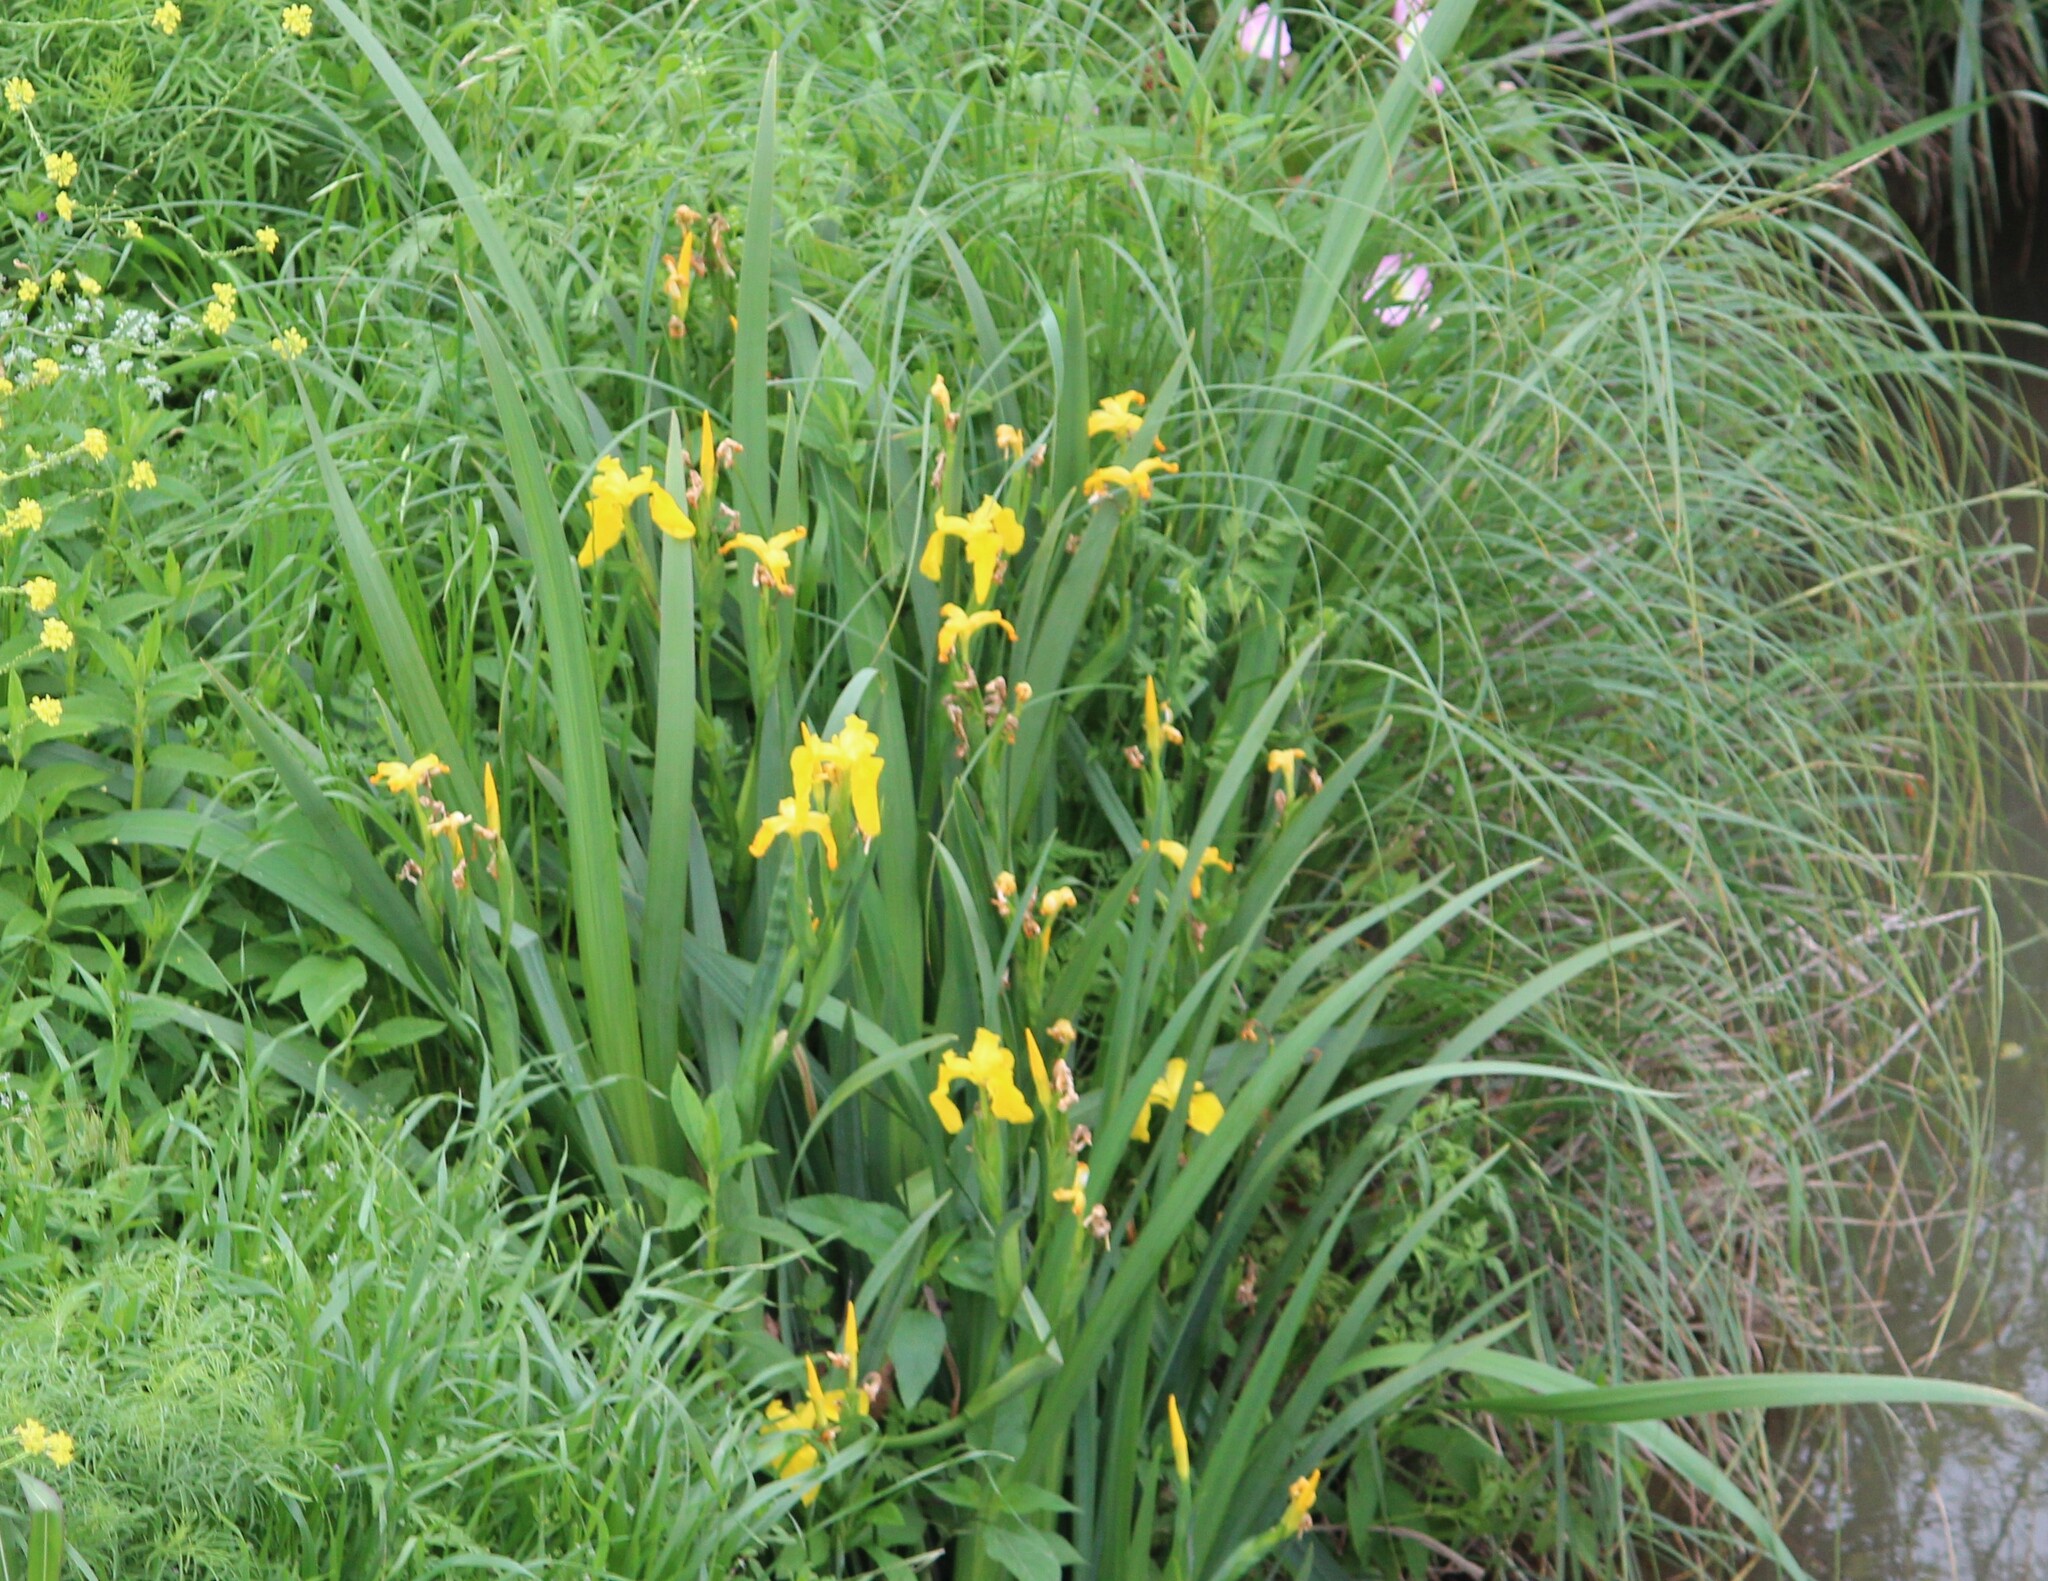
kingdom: Plantae
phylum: Tracheophyta
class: Liliopsida
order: Asparagales
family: Iridaceae
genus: Iris
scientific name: Iris pseudacorus
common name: Yellow flag
